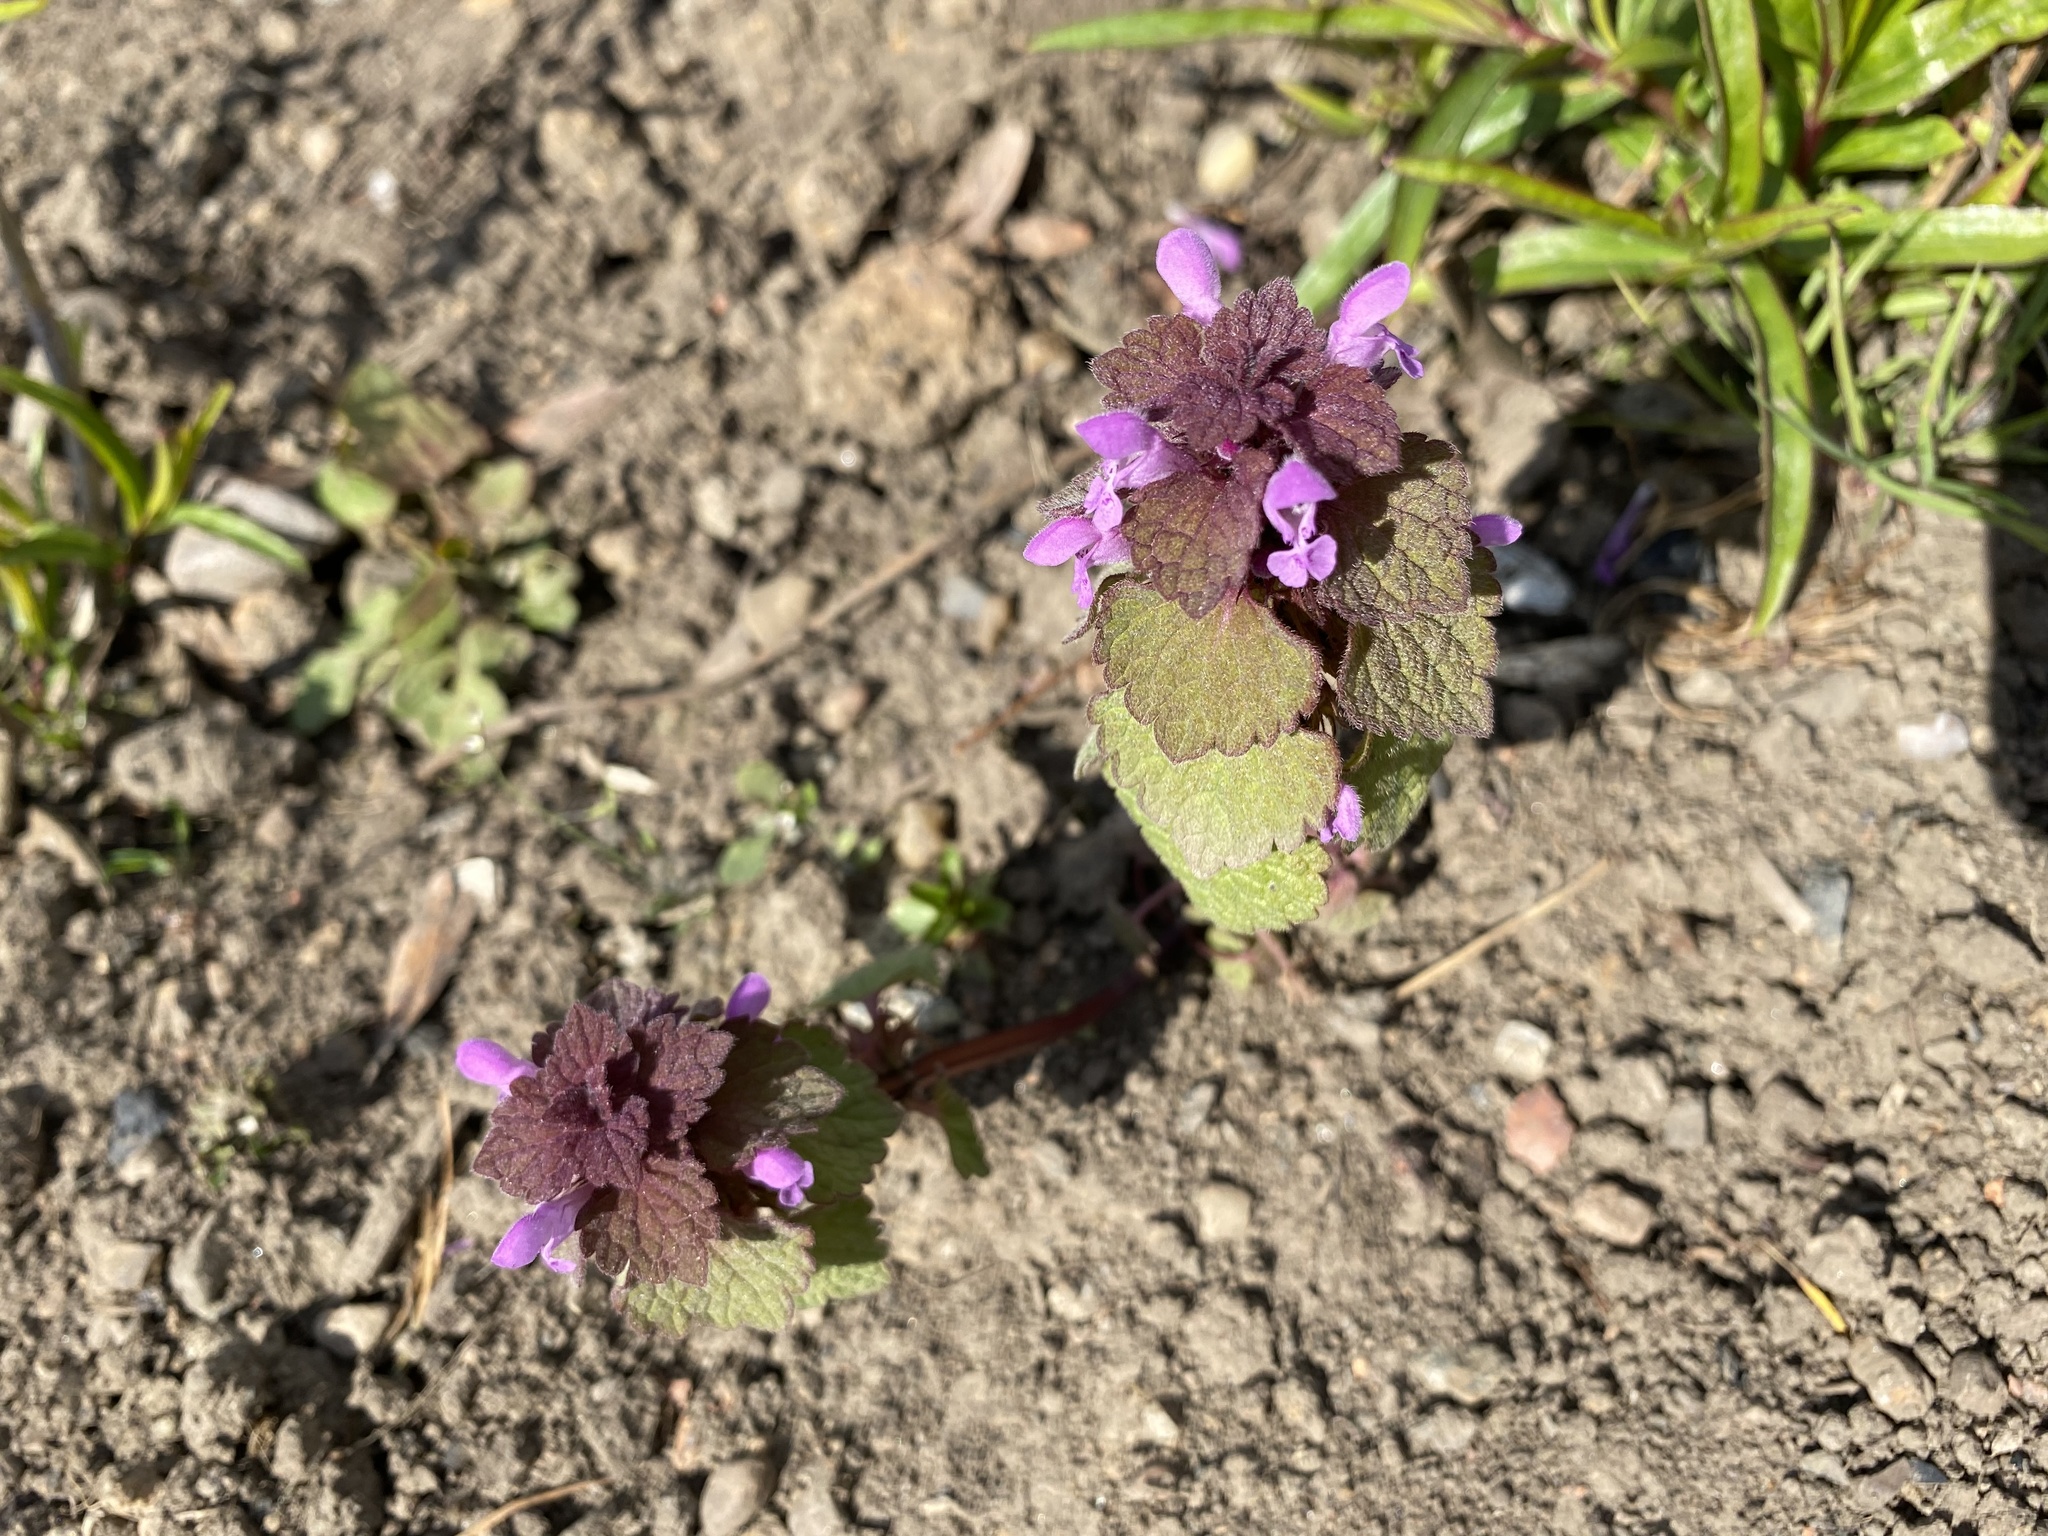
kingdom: Plantae
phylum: Tracheophyta
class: Magnoliopsida
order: Lamiales
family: Lamiaceae
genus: Lamium
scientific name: Lamium purpureum
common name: Red dead-nettle
